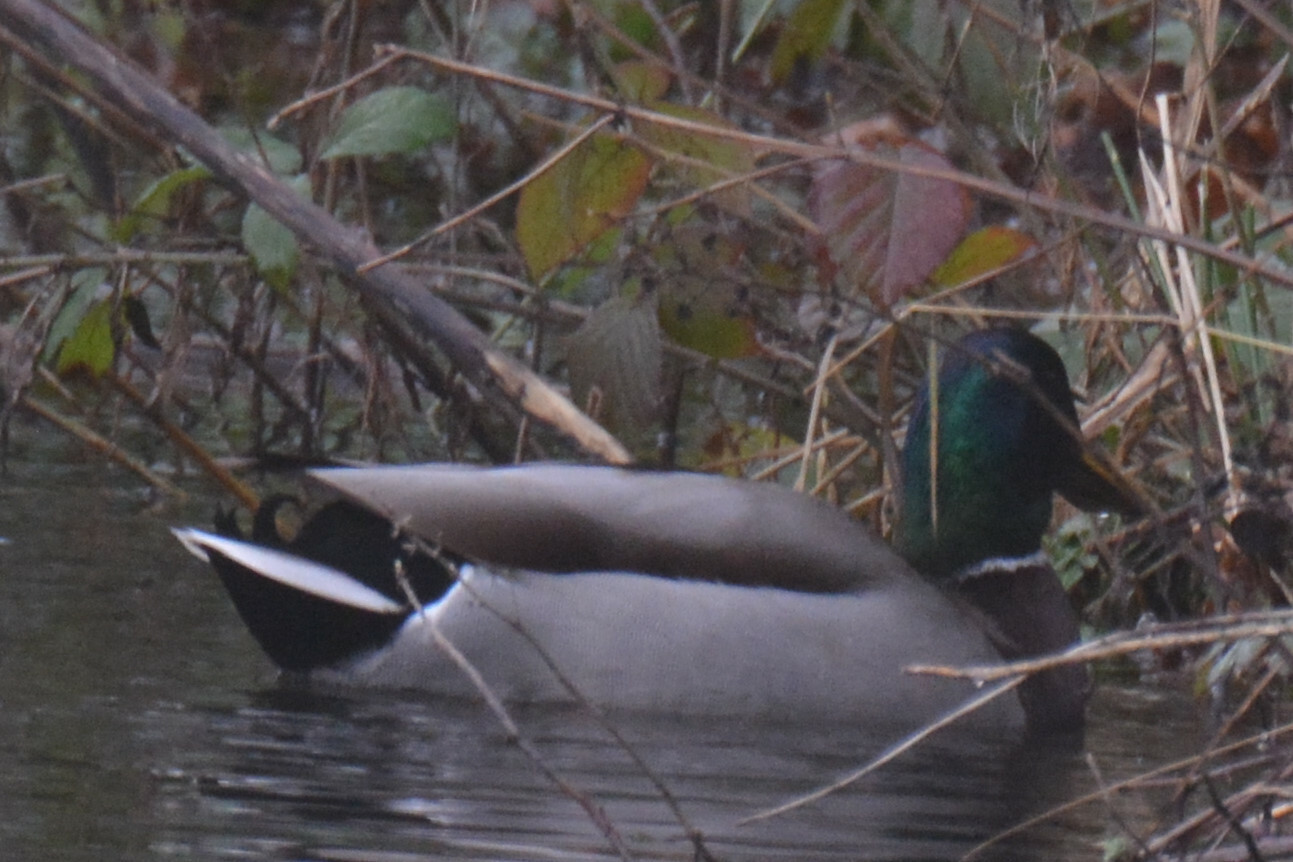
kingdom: Animalia
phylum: Chordata
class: Aves
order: Anseriformes
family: Anatidae
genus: Anas
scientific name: Anas platyrhynchos
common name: Mallard
